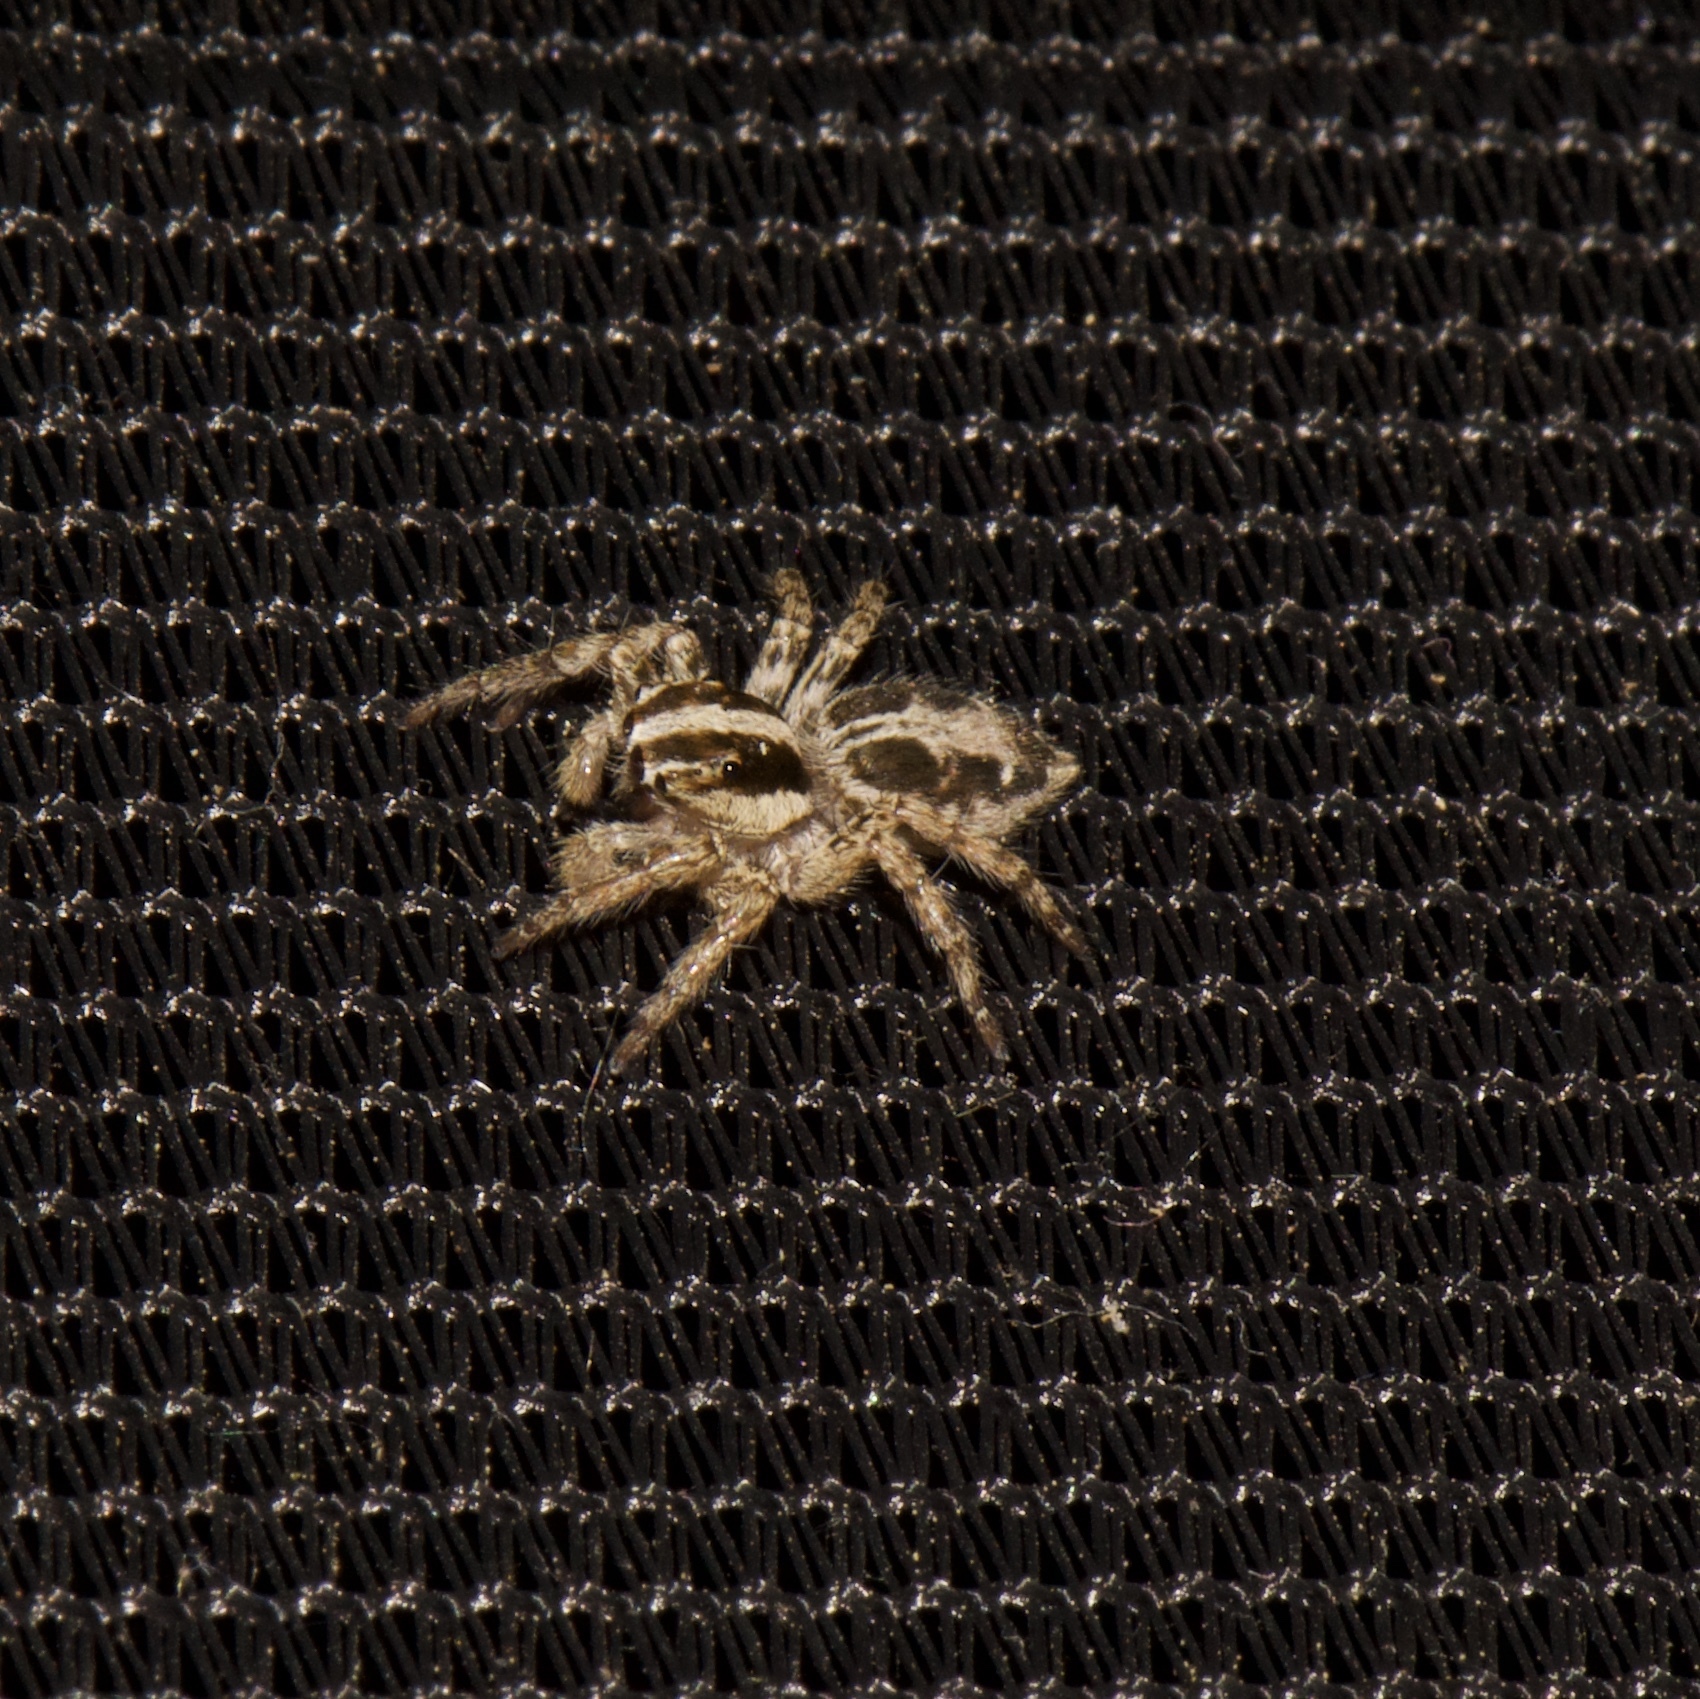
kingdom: Animalia
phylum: Arthropoda
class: Arachnida
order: Araneae
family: Salticidae
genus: Plexippus
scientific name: Plexippus paykulli
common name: Pantropical jumper
